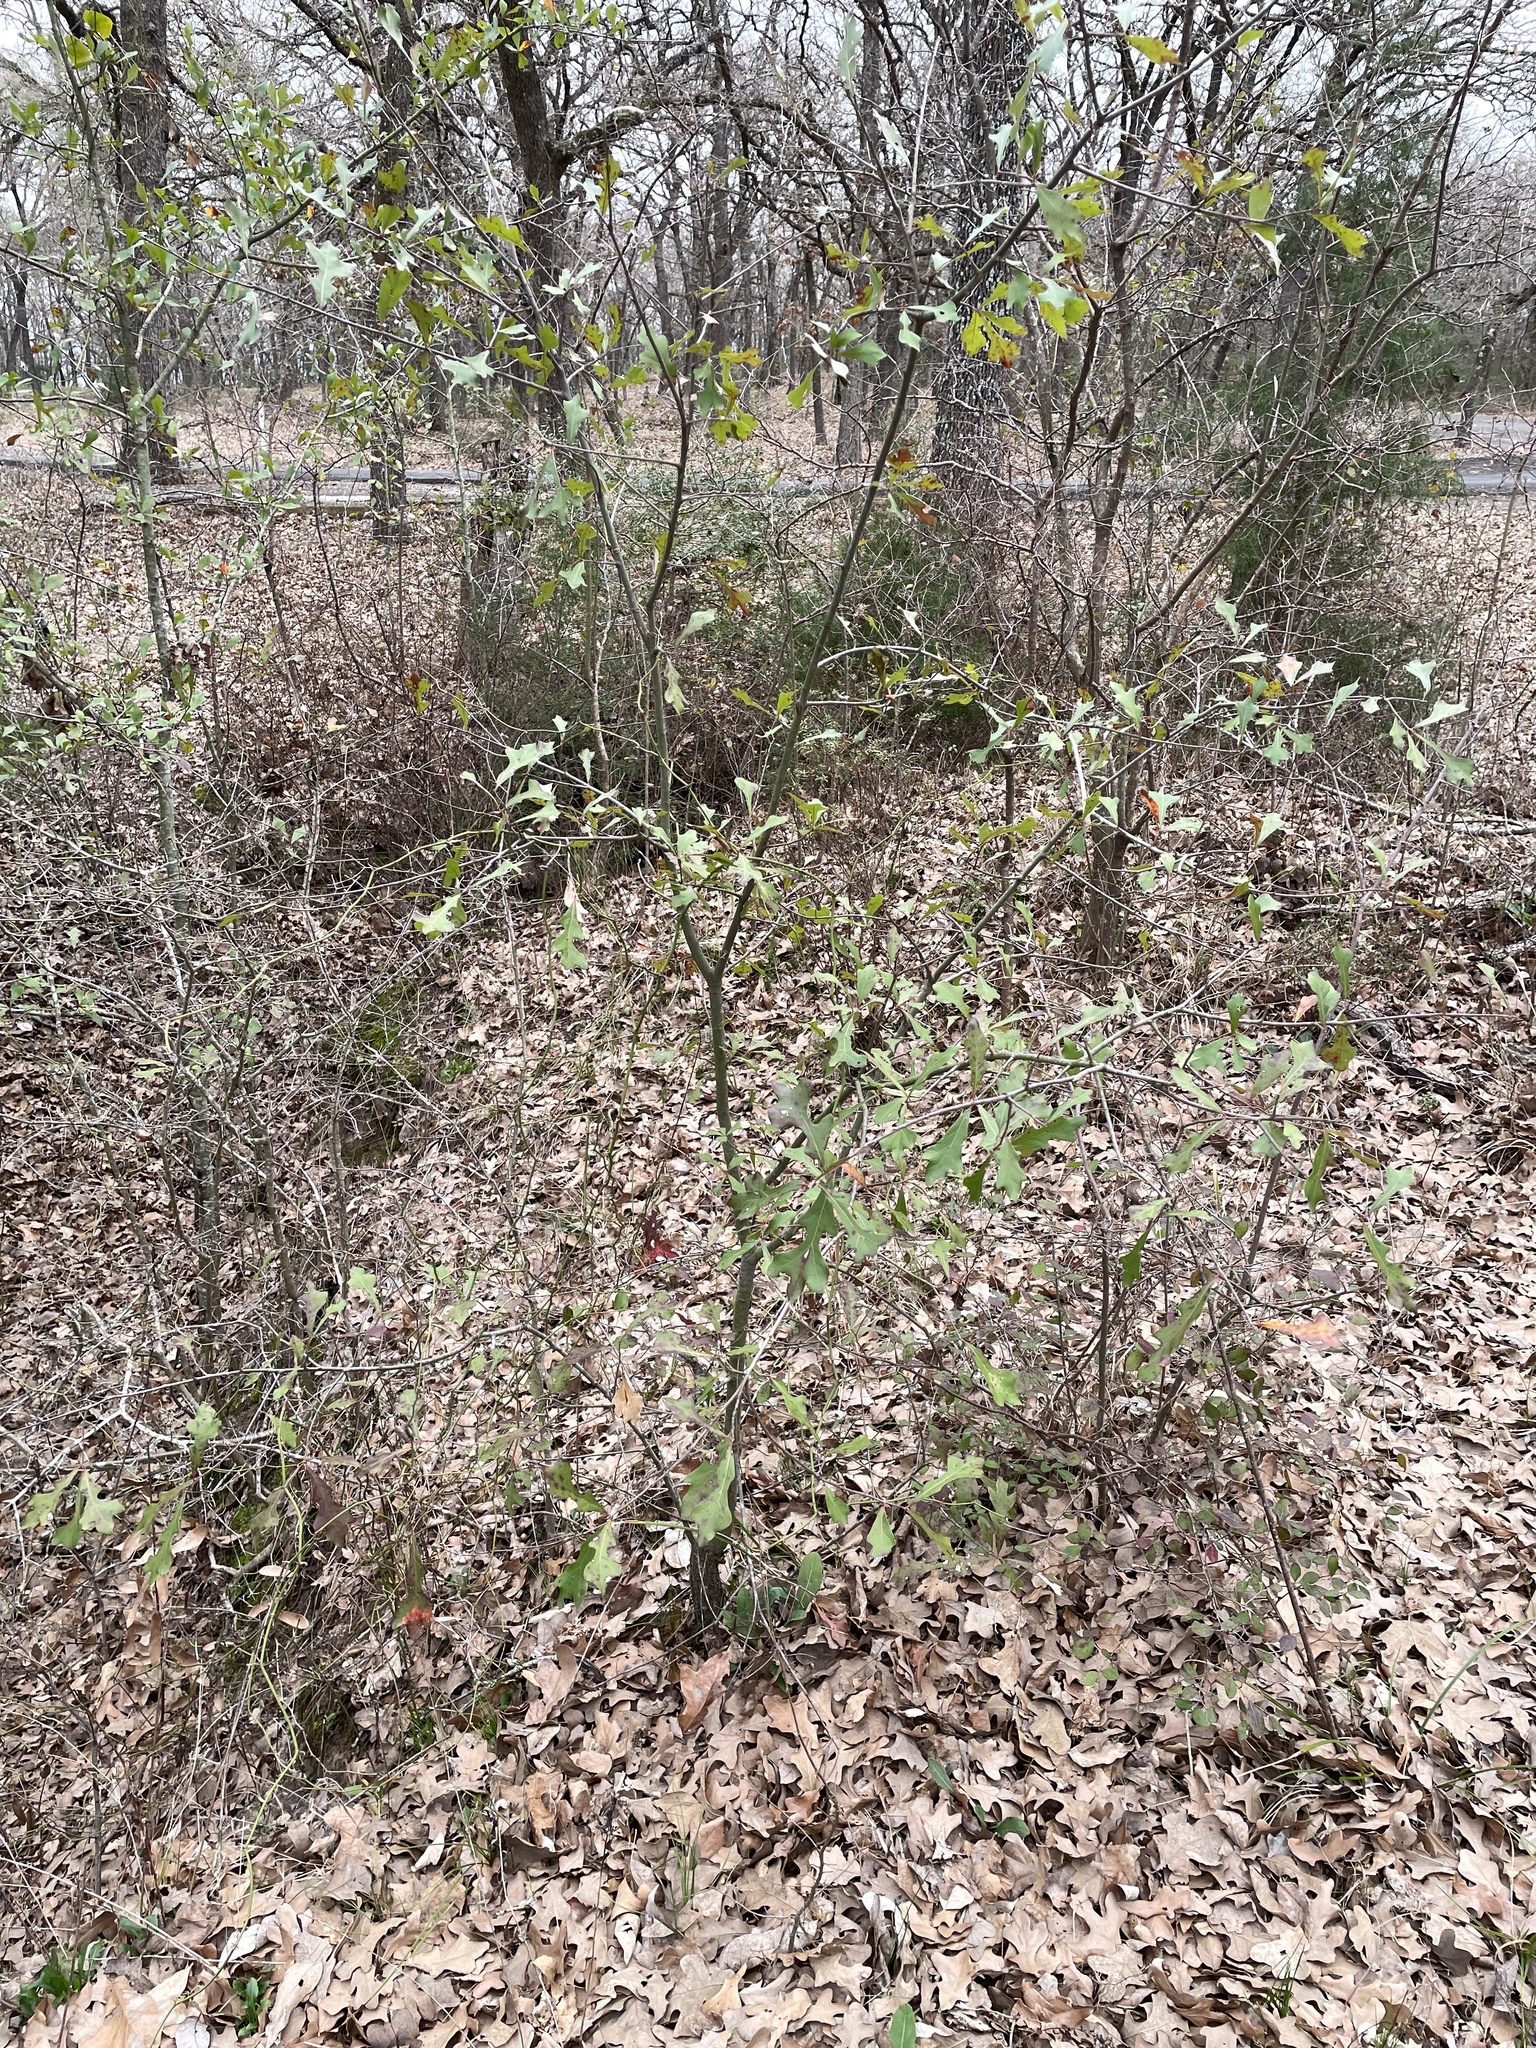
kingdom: Plantae
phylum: Tracheophyta
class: Magnoliopsida
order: Fagales
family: Fagaceae
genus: Quercus
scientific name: Quercus nigra
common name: Water oak
